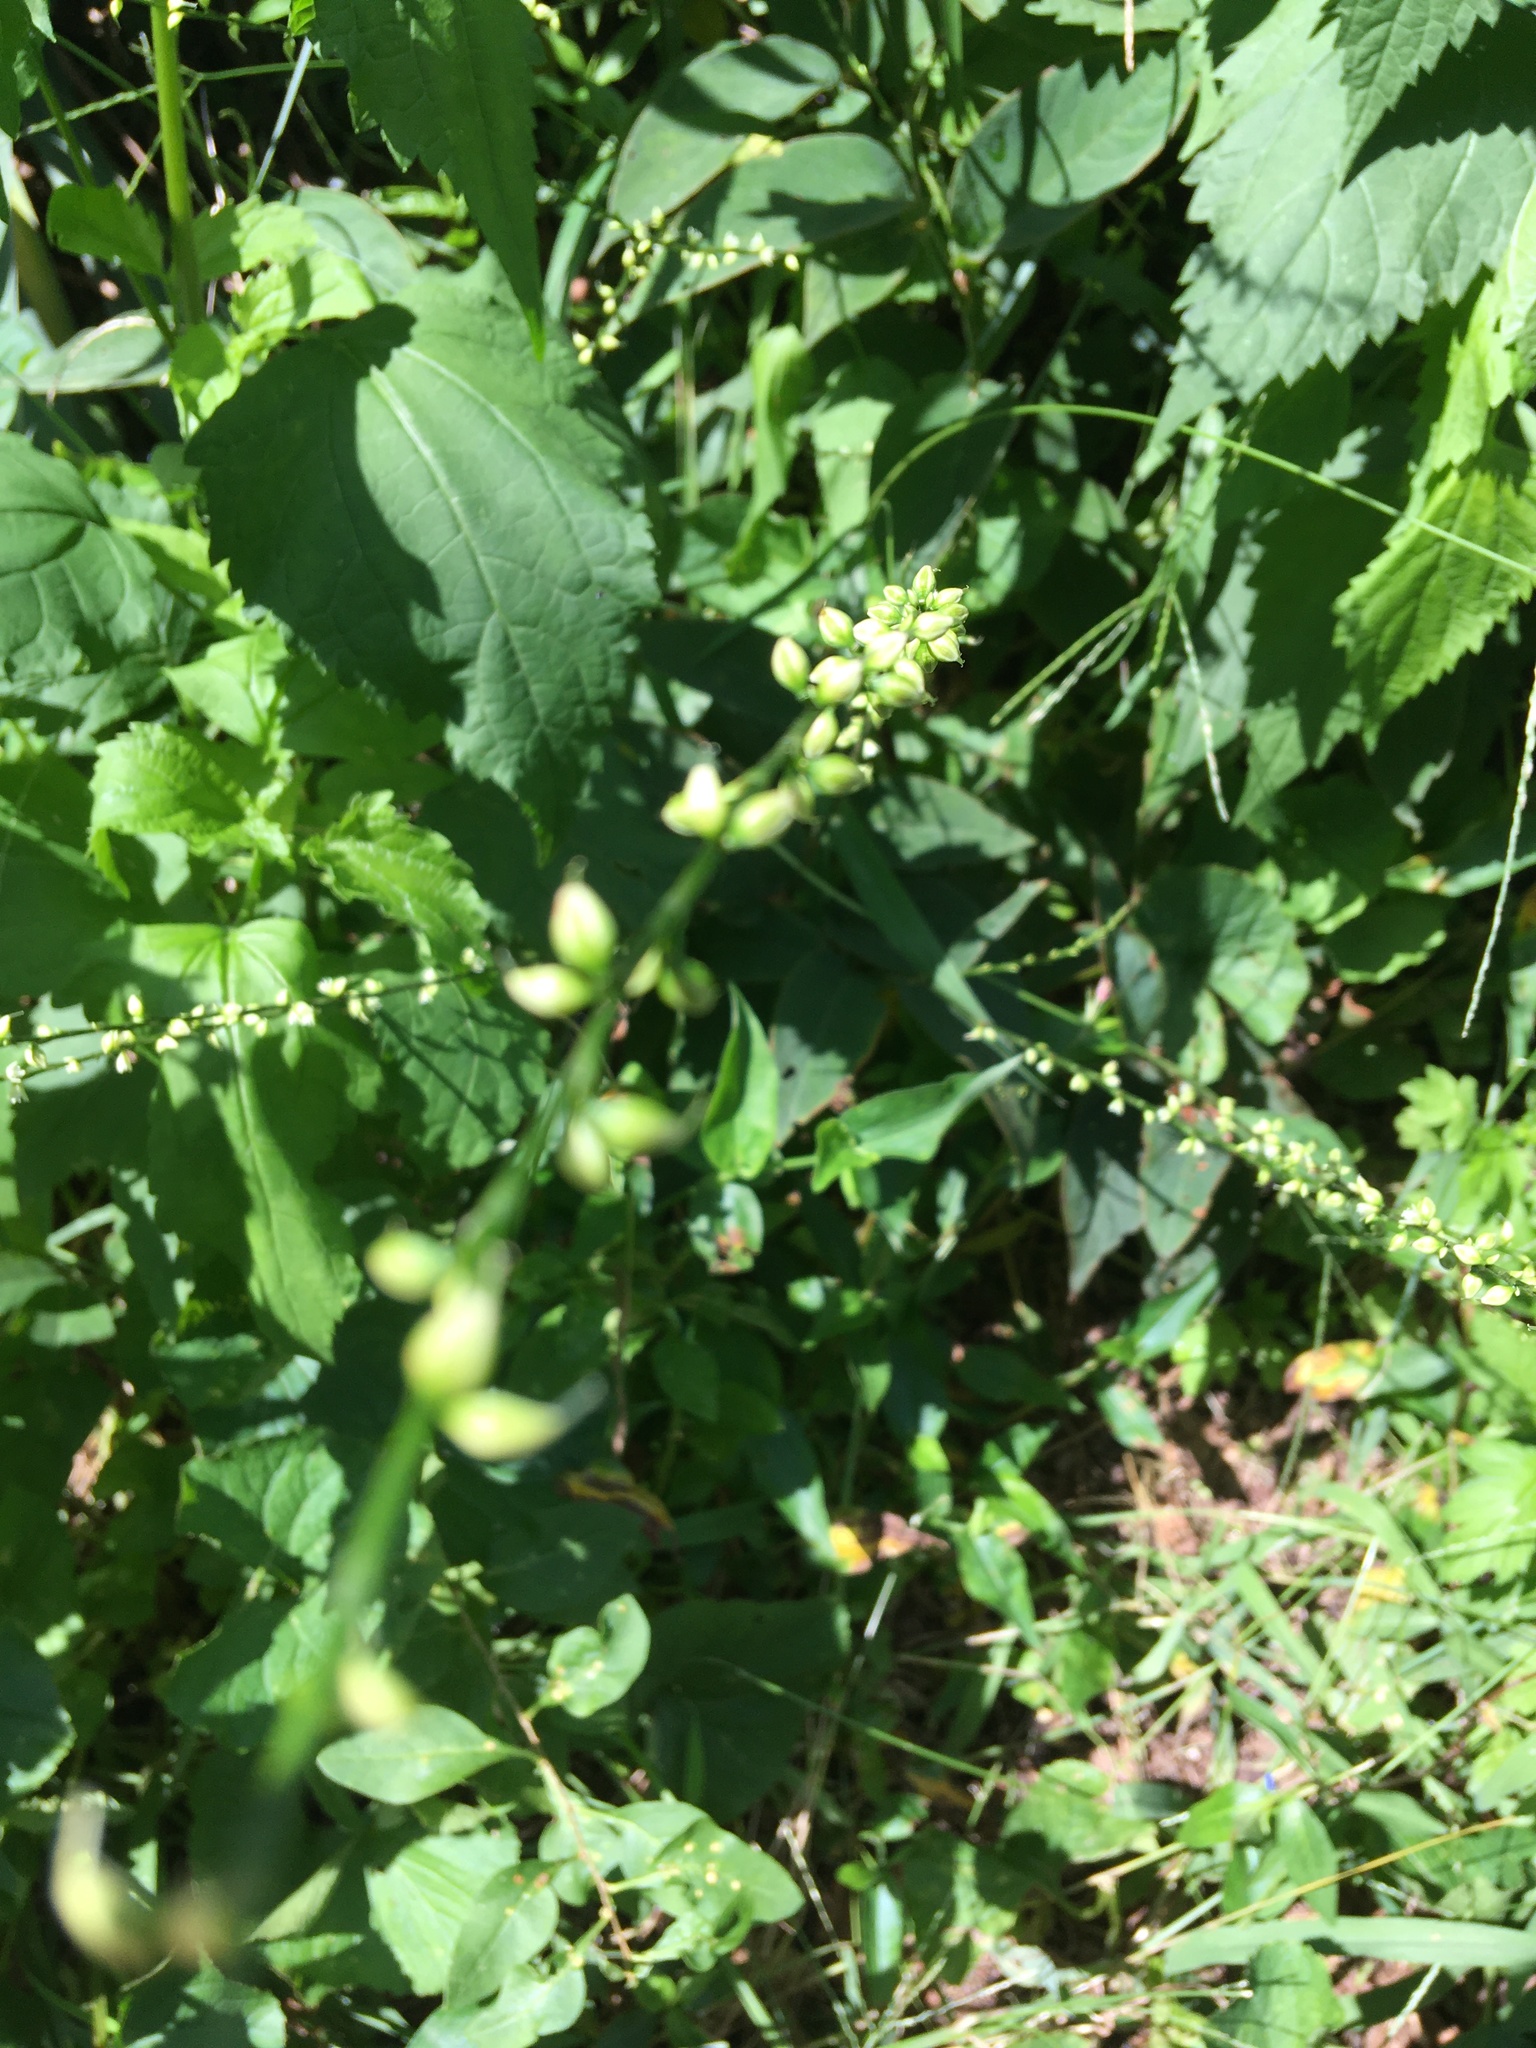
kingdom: Plantae
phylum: Tracheophyta
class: Magnoliopsida
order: Caryophyllales
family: Polygonaceae
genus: Persicaria
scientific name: Persicaria virginiana
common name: Jumpseed
